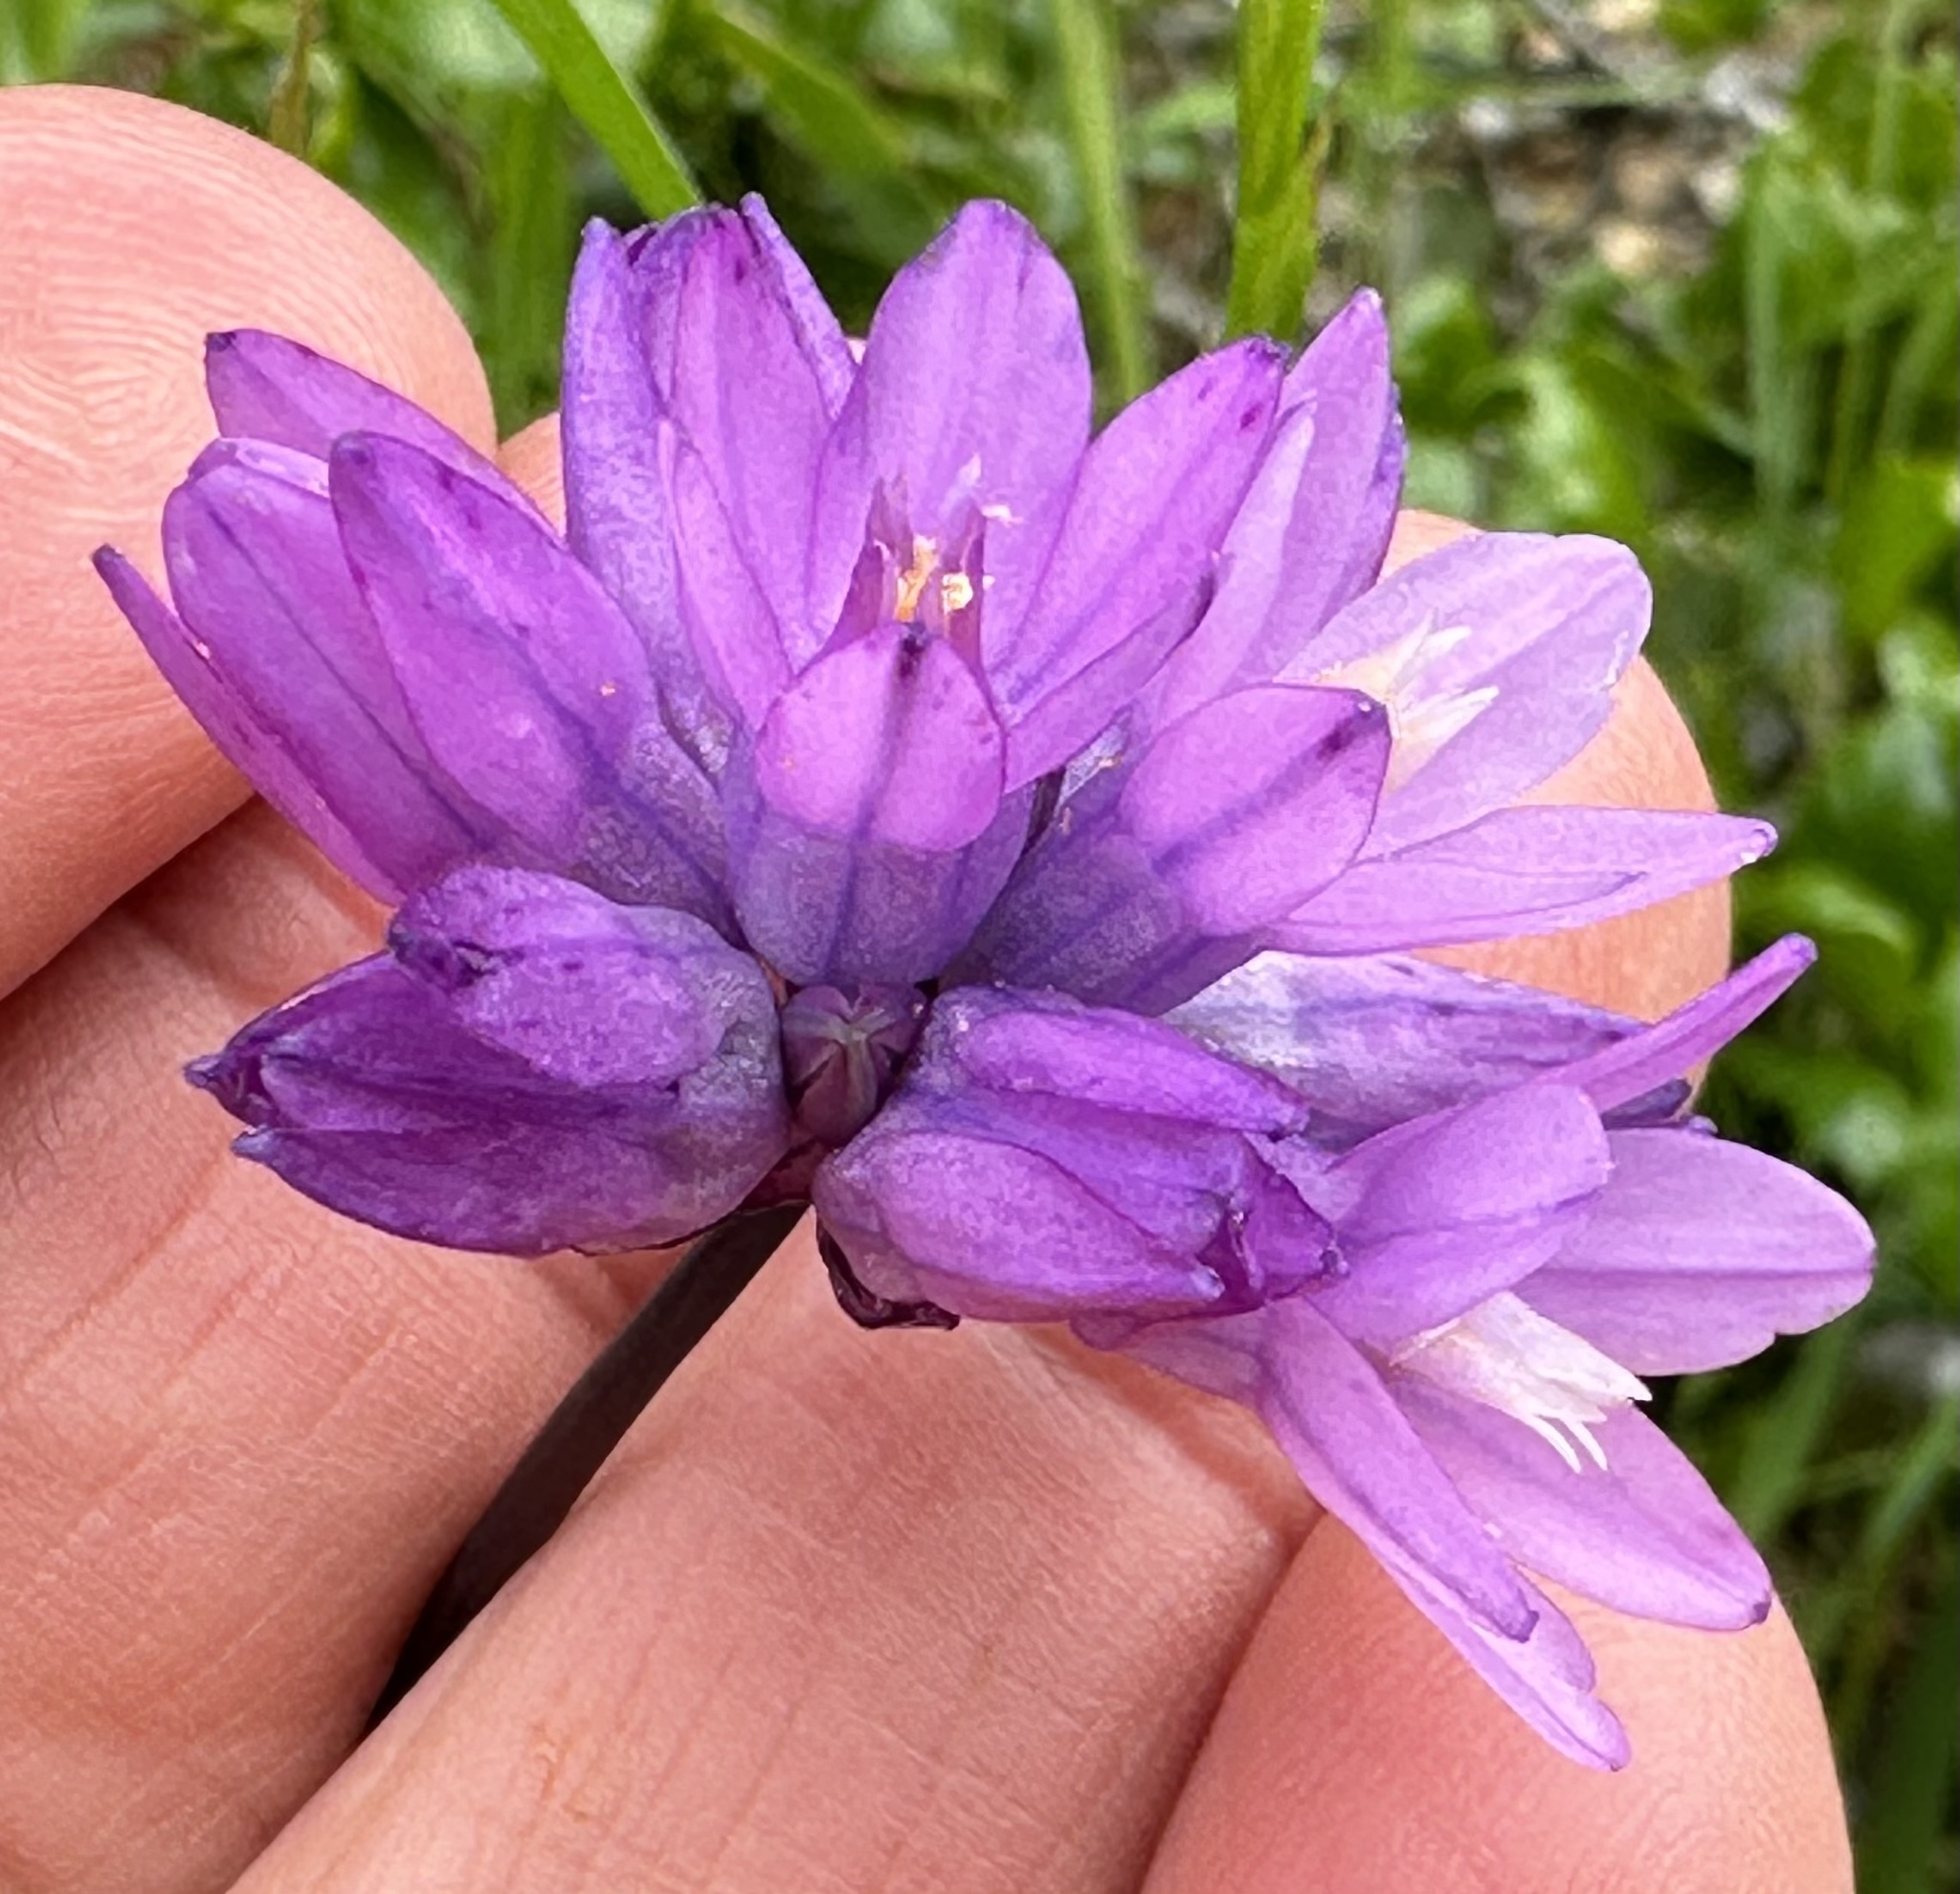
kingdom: Plantae
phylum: Tracheophyta
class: Liliopsida
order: Asparagales
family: Asparagaceae
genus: Dipterostemon
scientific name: Dipterostemon capitatus
